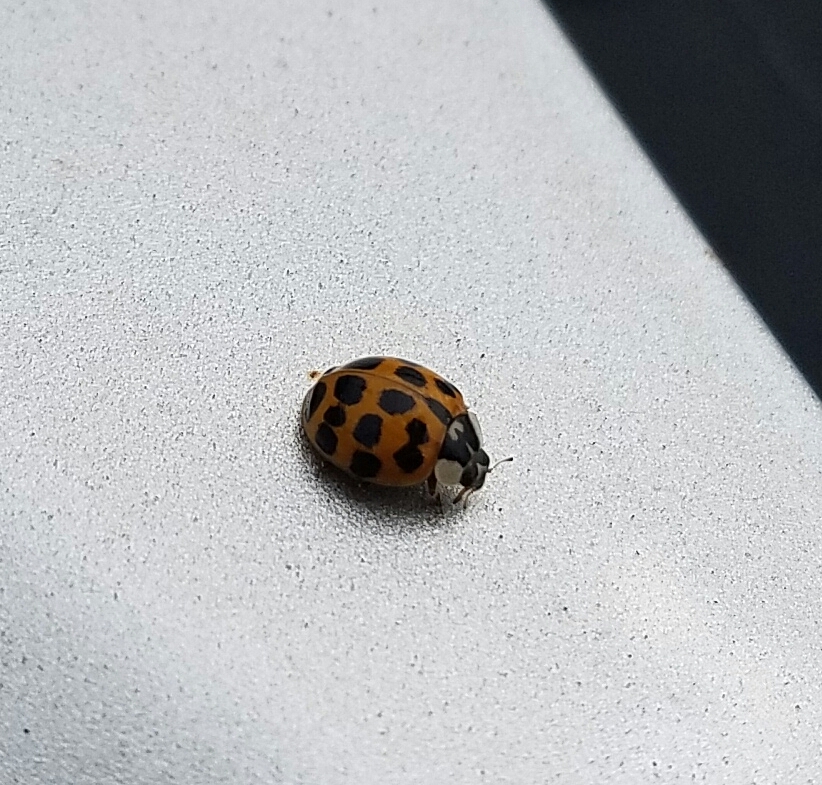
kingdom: Animalia
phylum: Arthropoda
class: Insecta
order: Coleoptera
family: Coccinellidae
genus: Harmonia
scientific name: Harmonia axyridis
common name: Harlequin ladybird
